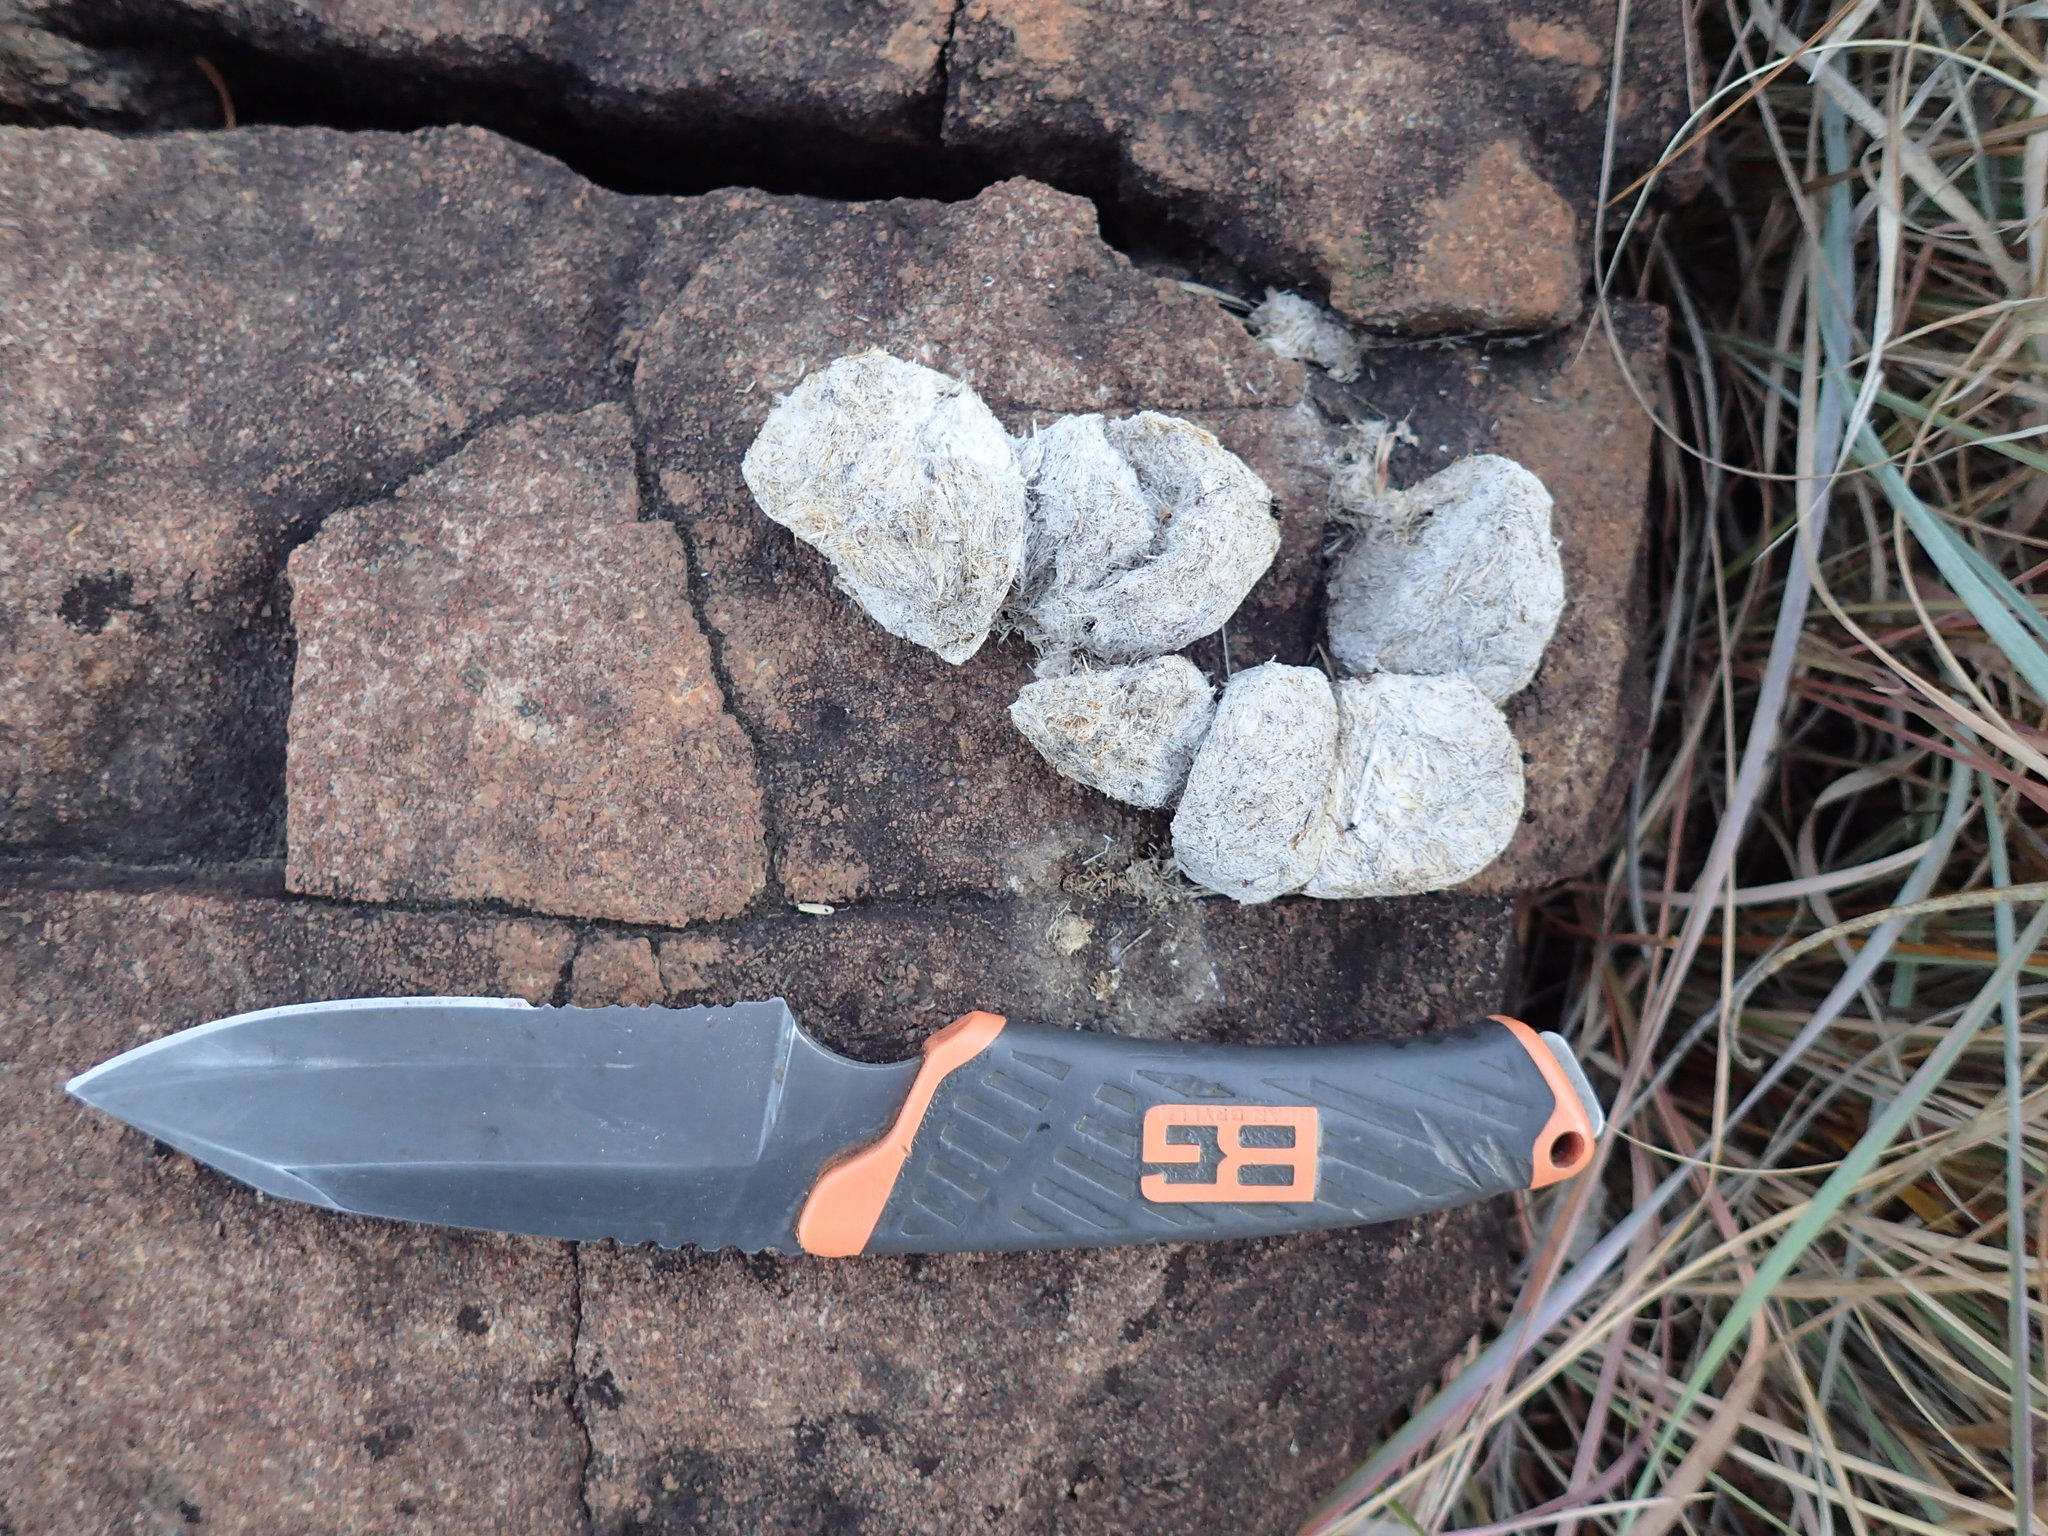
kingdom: Animalia
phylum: Chordata
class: Mammalia
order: Carnivora
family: Felidae
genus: Panthera
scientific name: Panthera pardus
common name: Leopard
